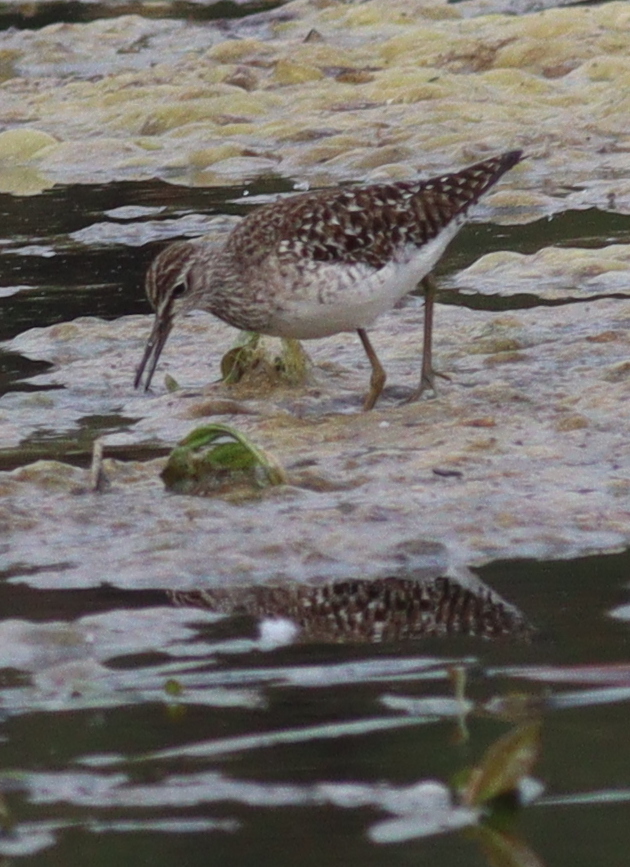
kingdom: Animalia
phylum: Chordata
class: Aves
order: Charadriiformes
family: Scolopacidae
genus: Tringa
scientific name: Tringa glareola
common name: Wood sandpiper
